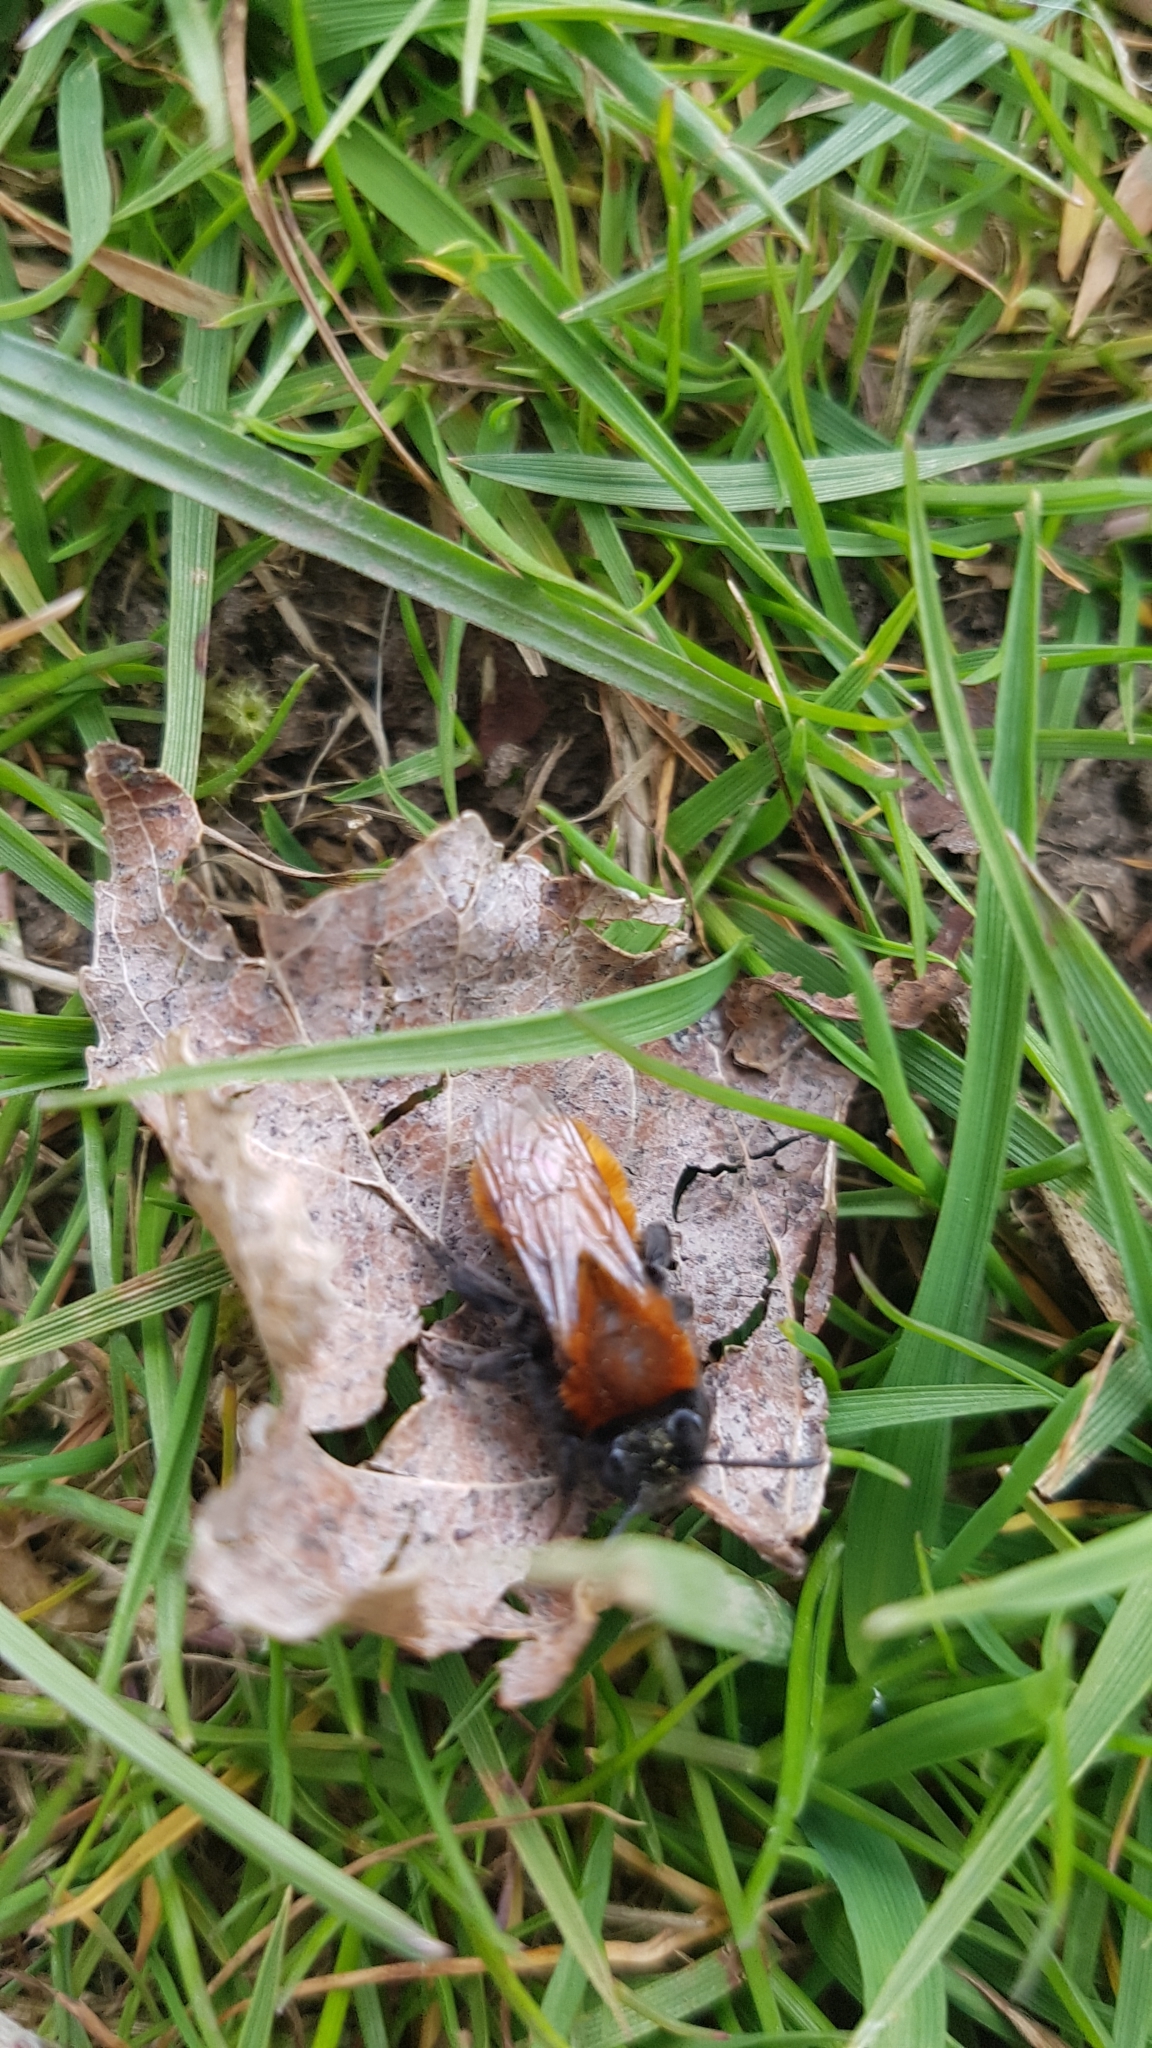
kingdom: Animalia
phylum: Arthropoda
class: Insecta
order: Hymenoptera
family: Andrenidae
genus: Andrena
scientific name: Andrena fulva
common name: Tawny mining bee
